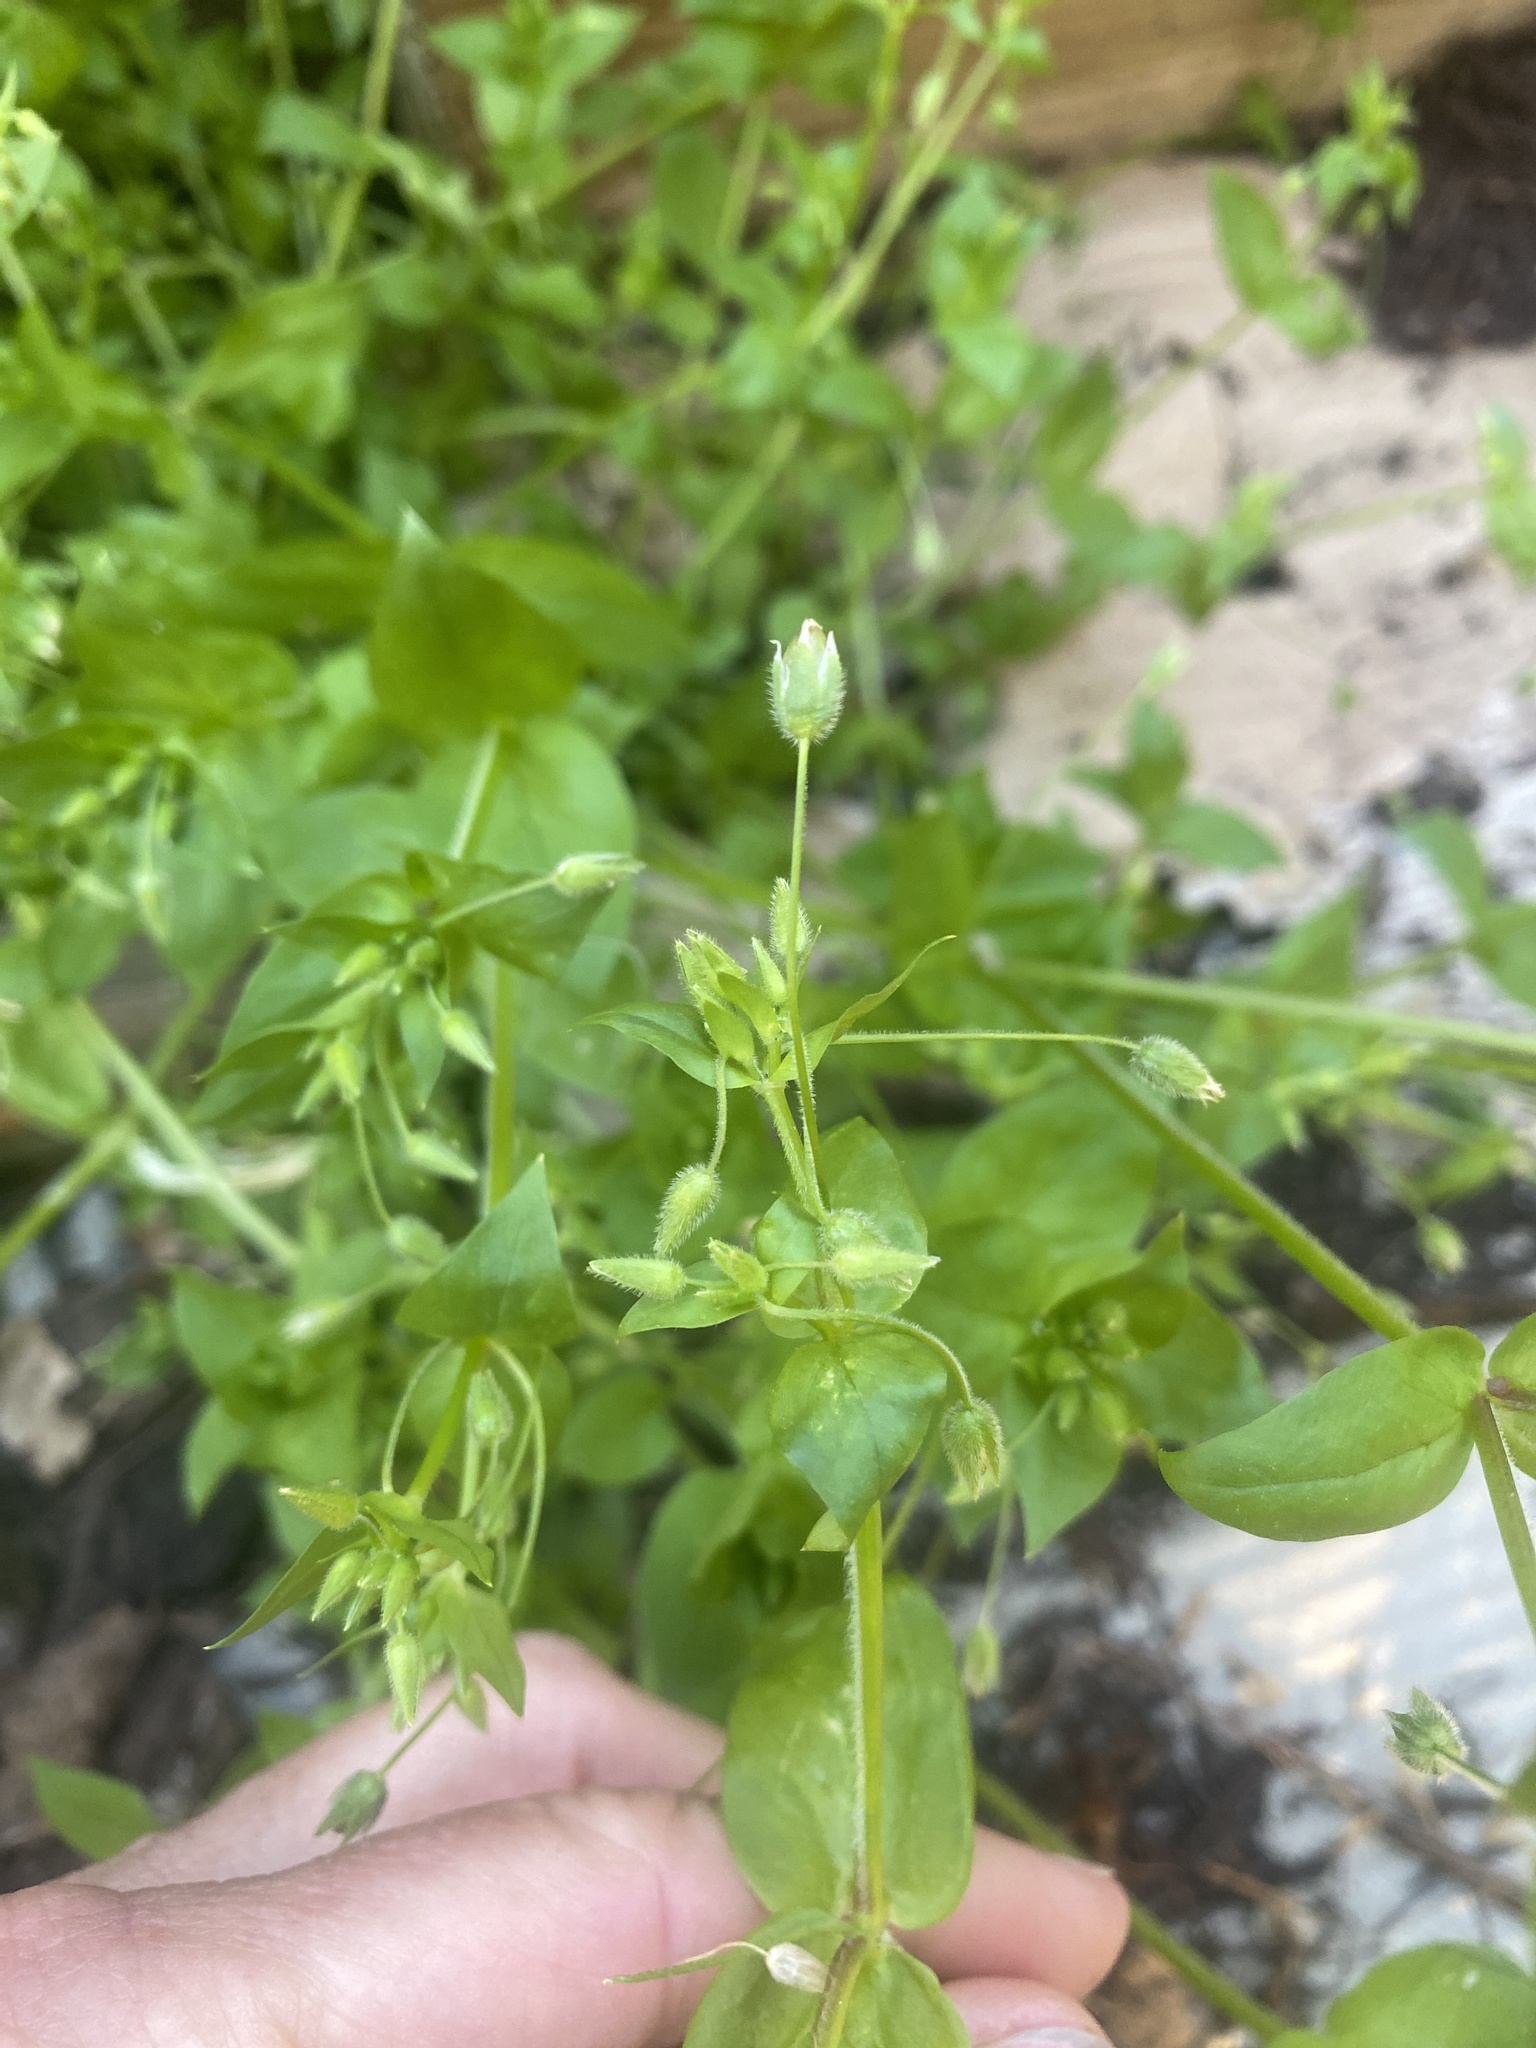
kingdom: Plantae
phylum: Tracheophyta
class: Magnoliopsida
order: Caryophyllales
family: Caryophyllaceae
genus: Stellaria
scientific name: Stellaria media
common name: Common chickweed
